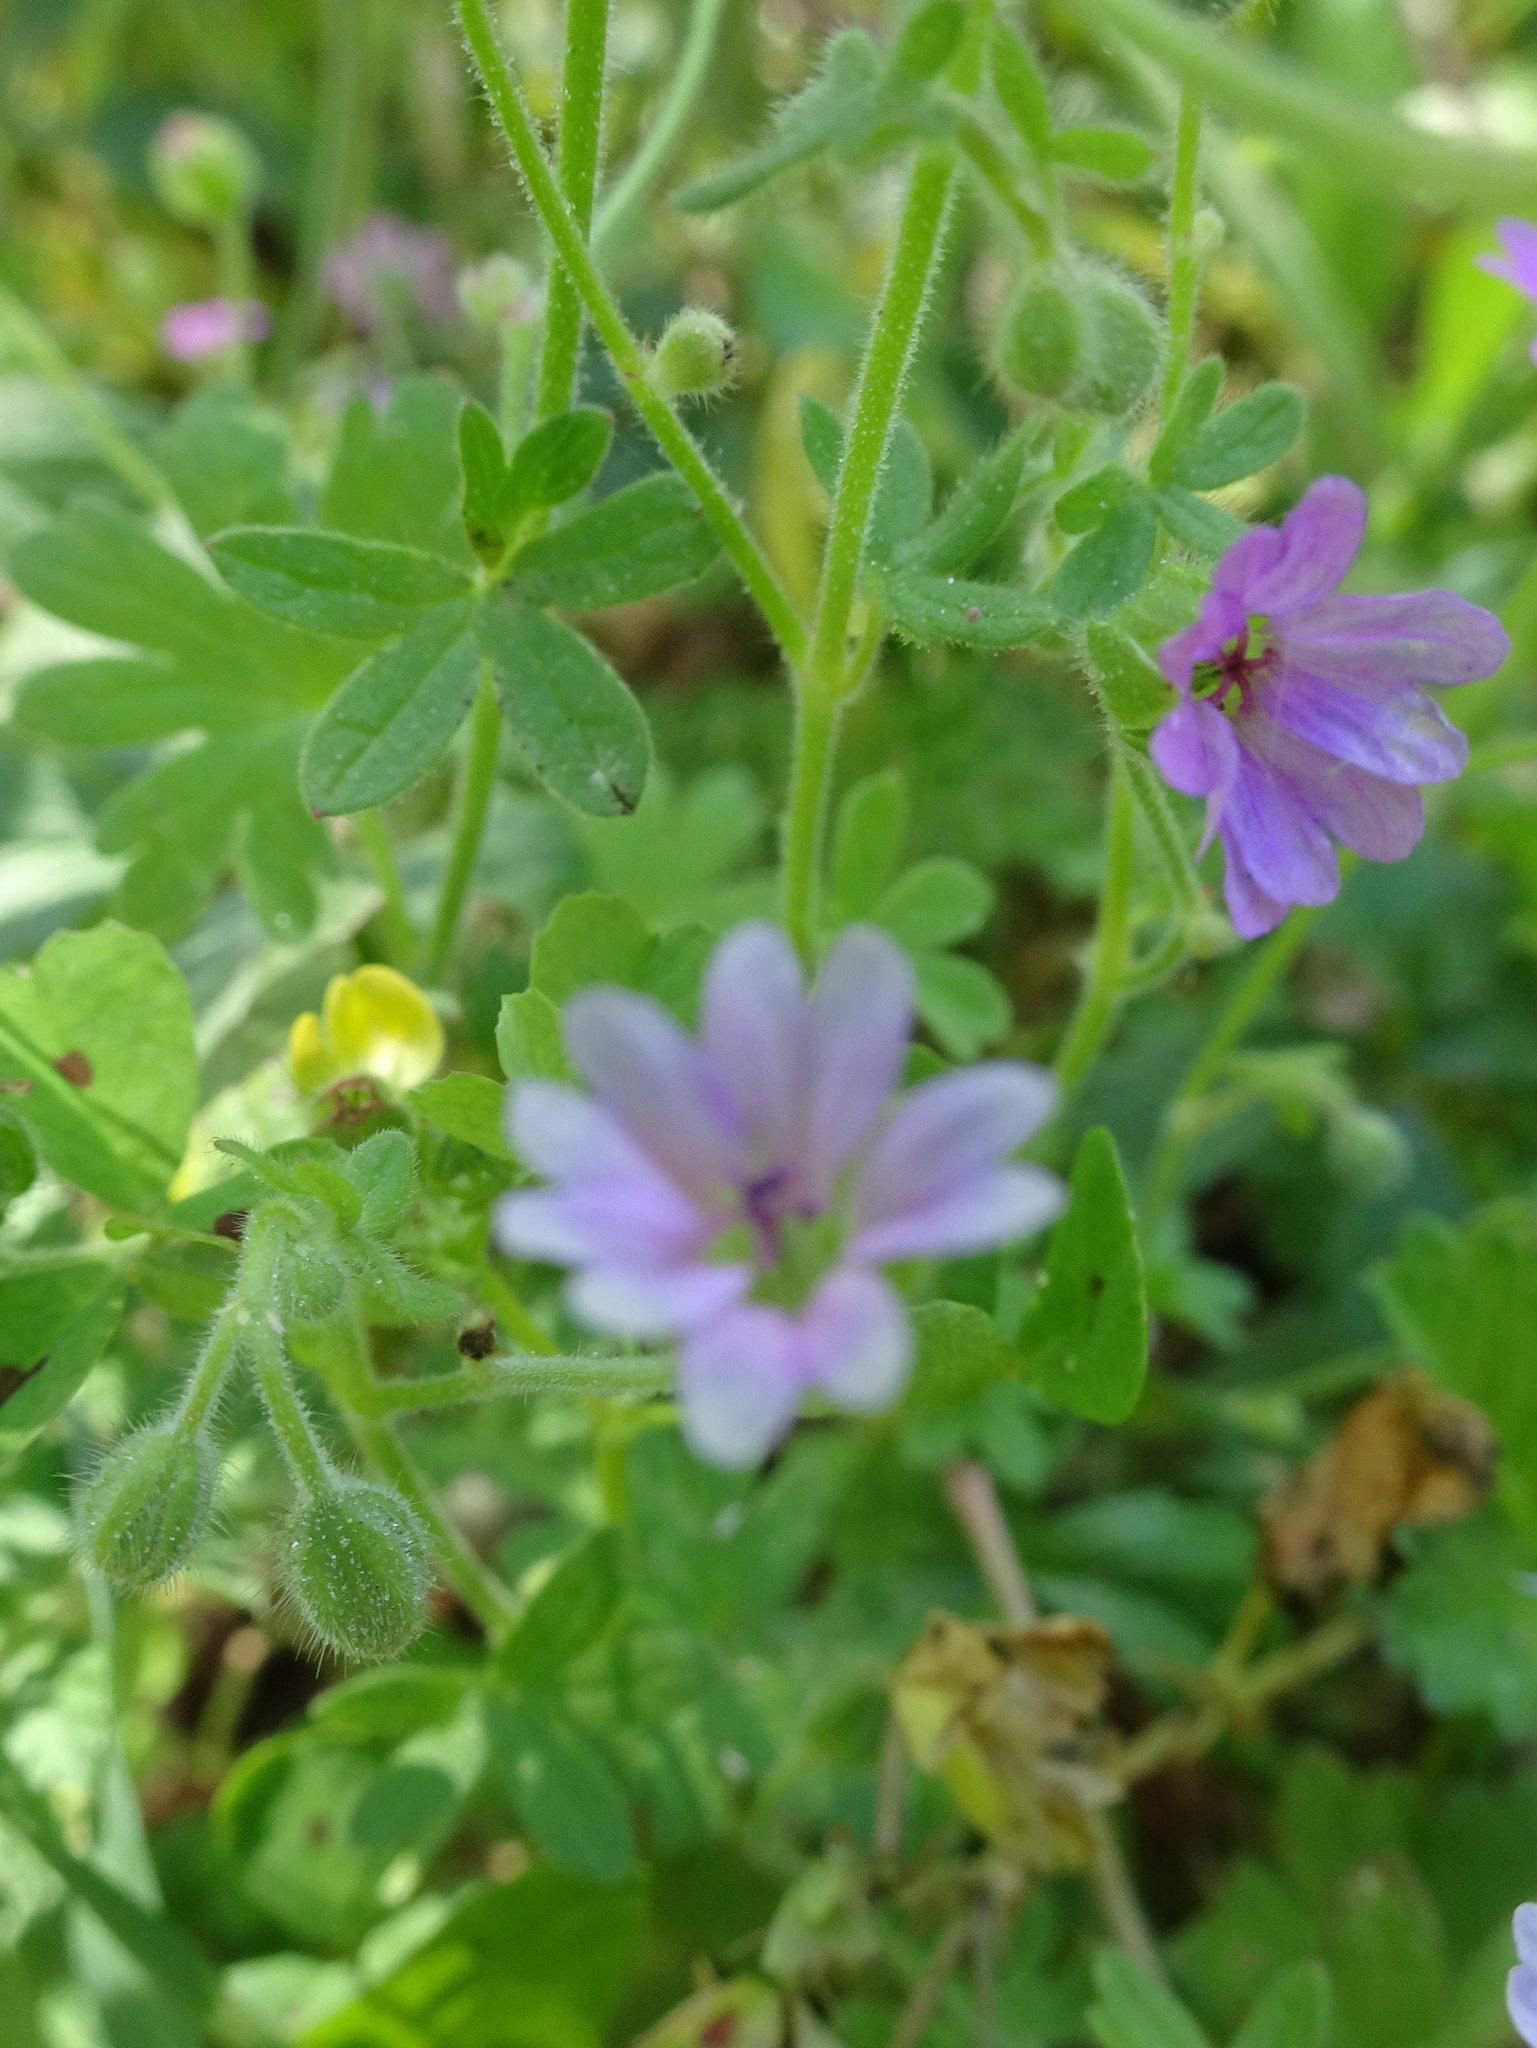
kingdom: Plantae
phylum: Tracheophyta
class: Magnoliopsida
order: Geraniales
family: Geraniaceae
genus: Geranium
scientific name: Geranium molle
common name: Dove's-foot crane's-bill
